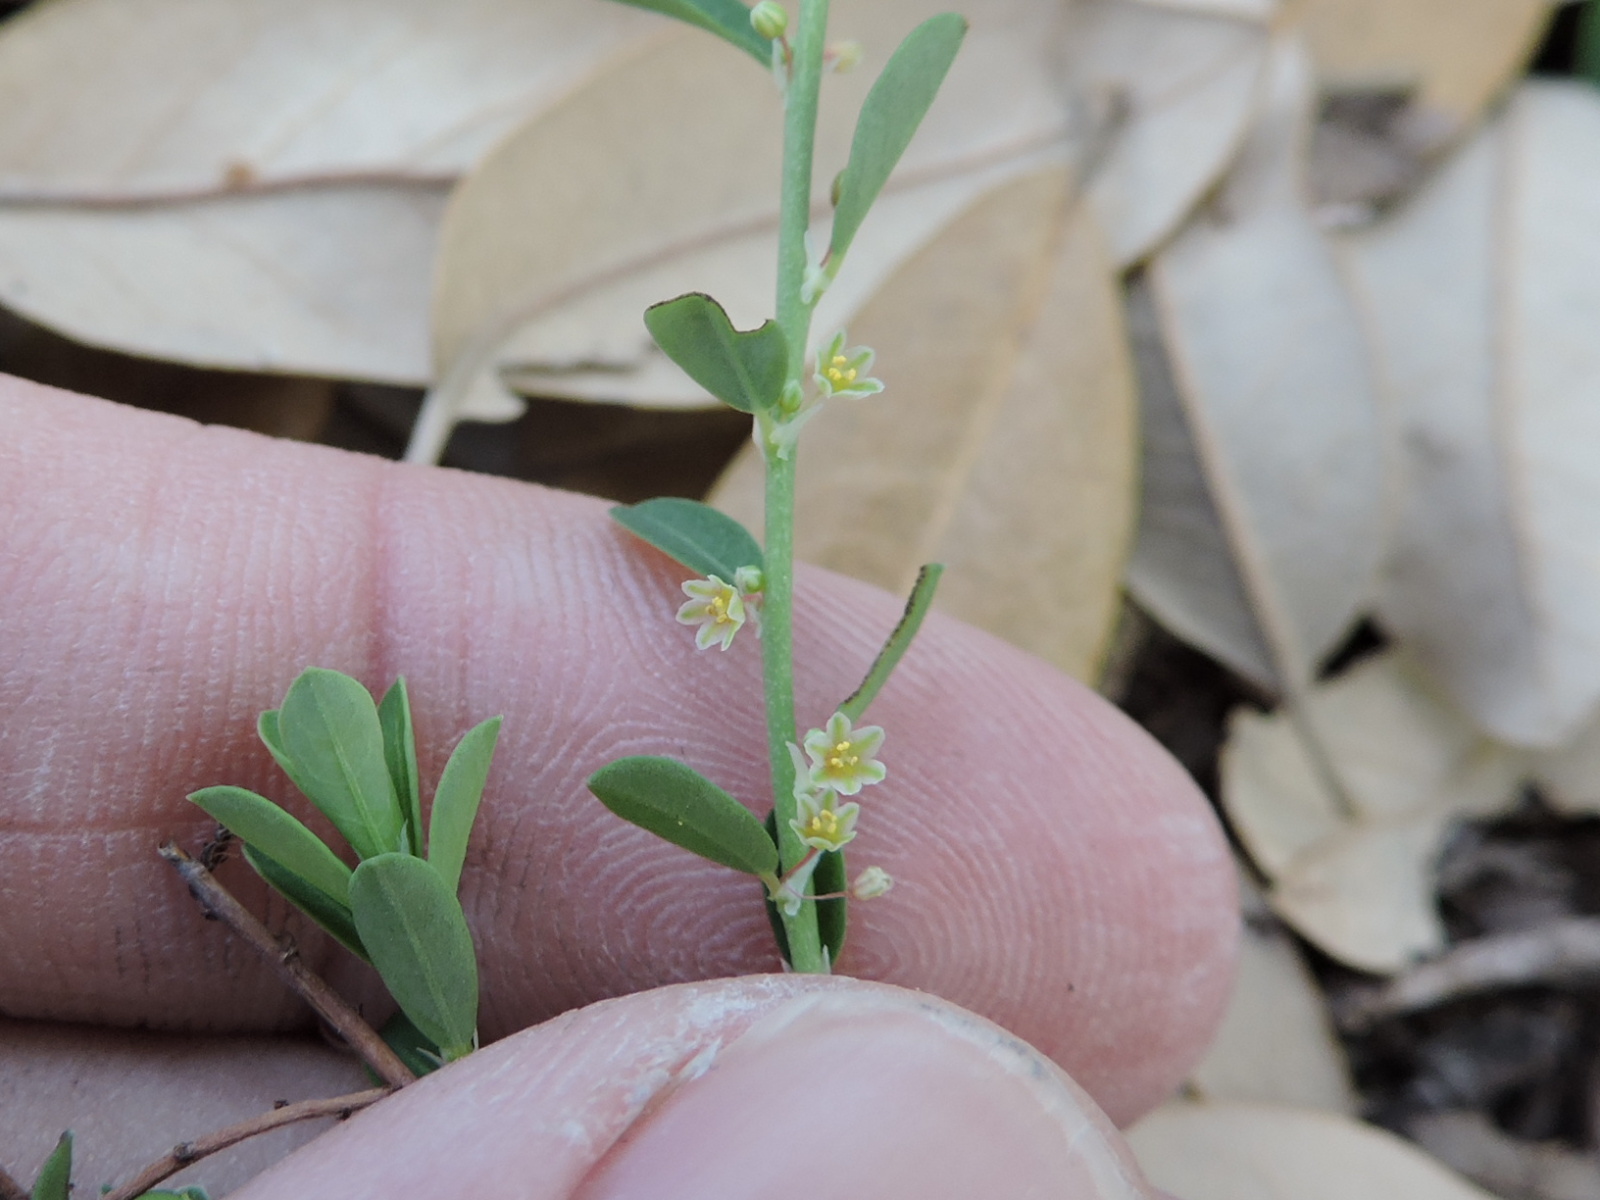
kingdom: Plantae
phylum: Tracheophyta
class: Magnoliopsida
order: Malpighiales
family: Phyllanthaceae
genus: Phyllanthus
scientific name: Phyllanthus polygonoides
